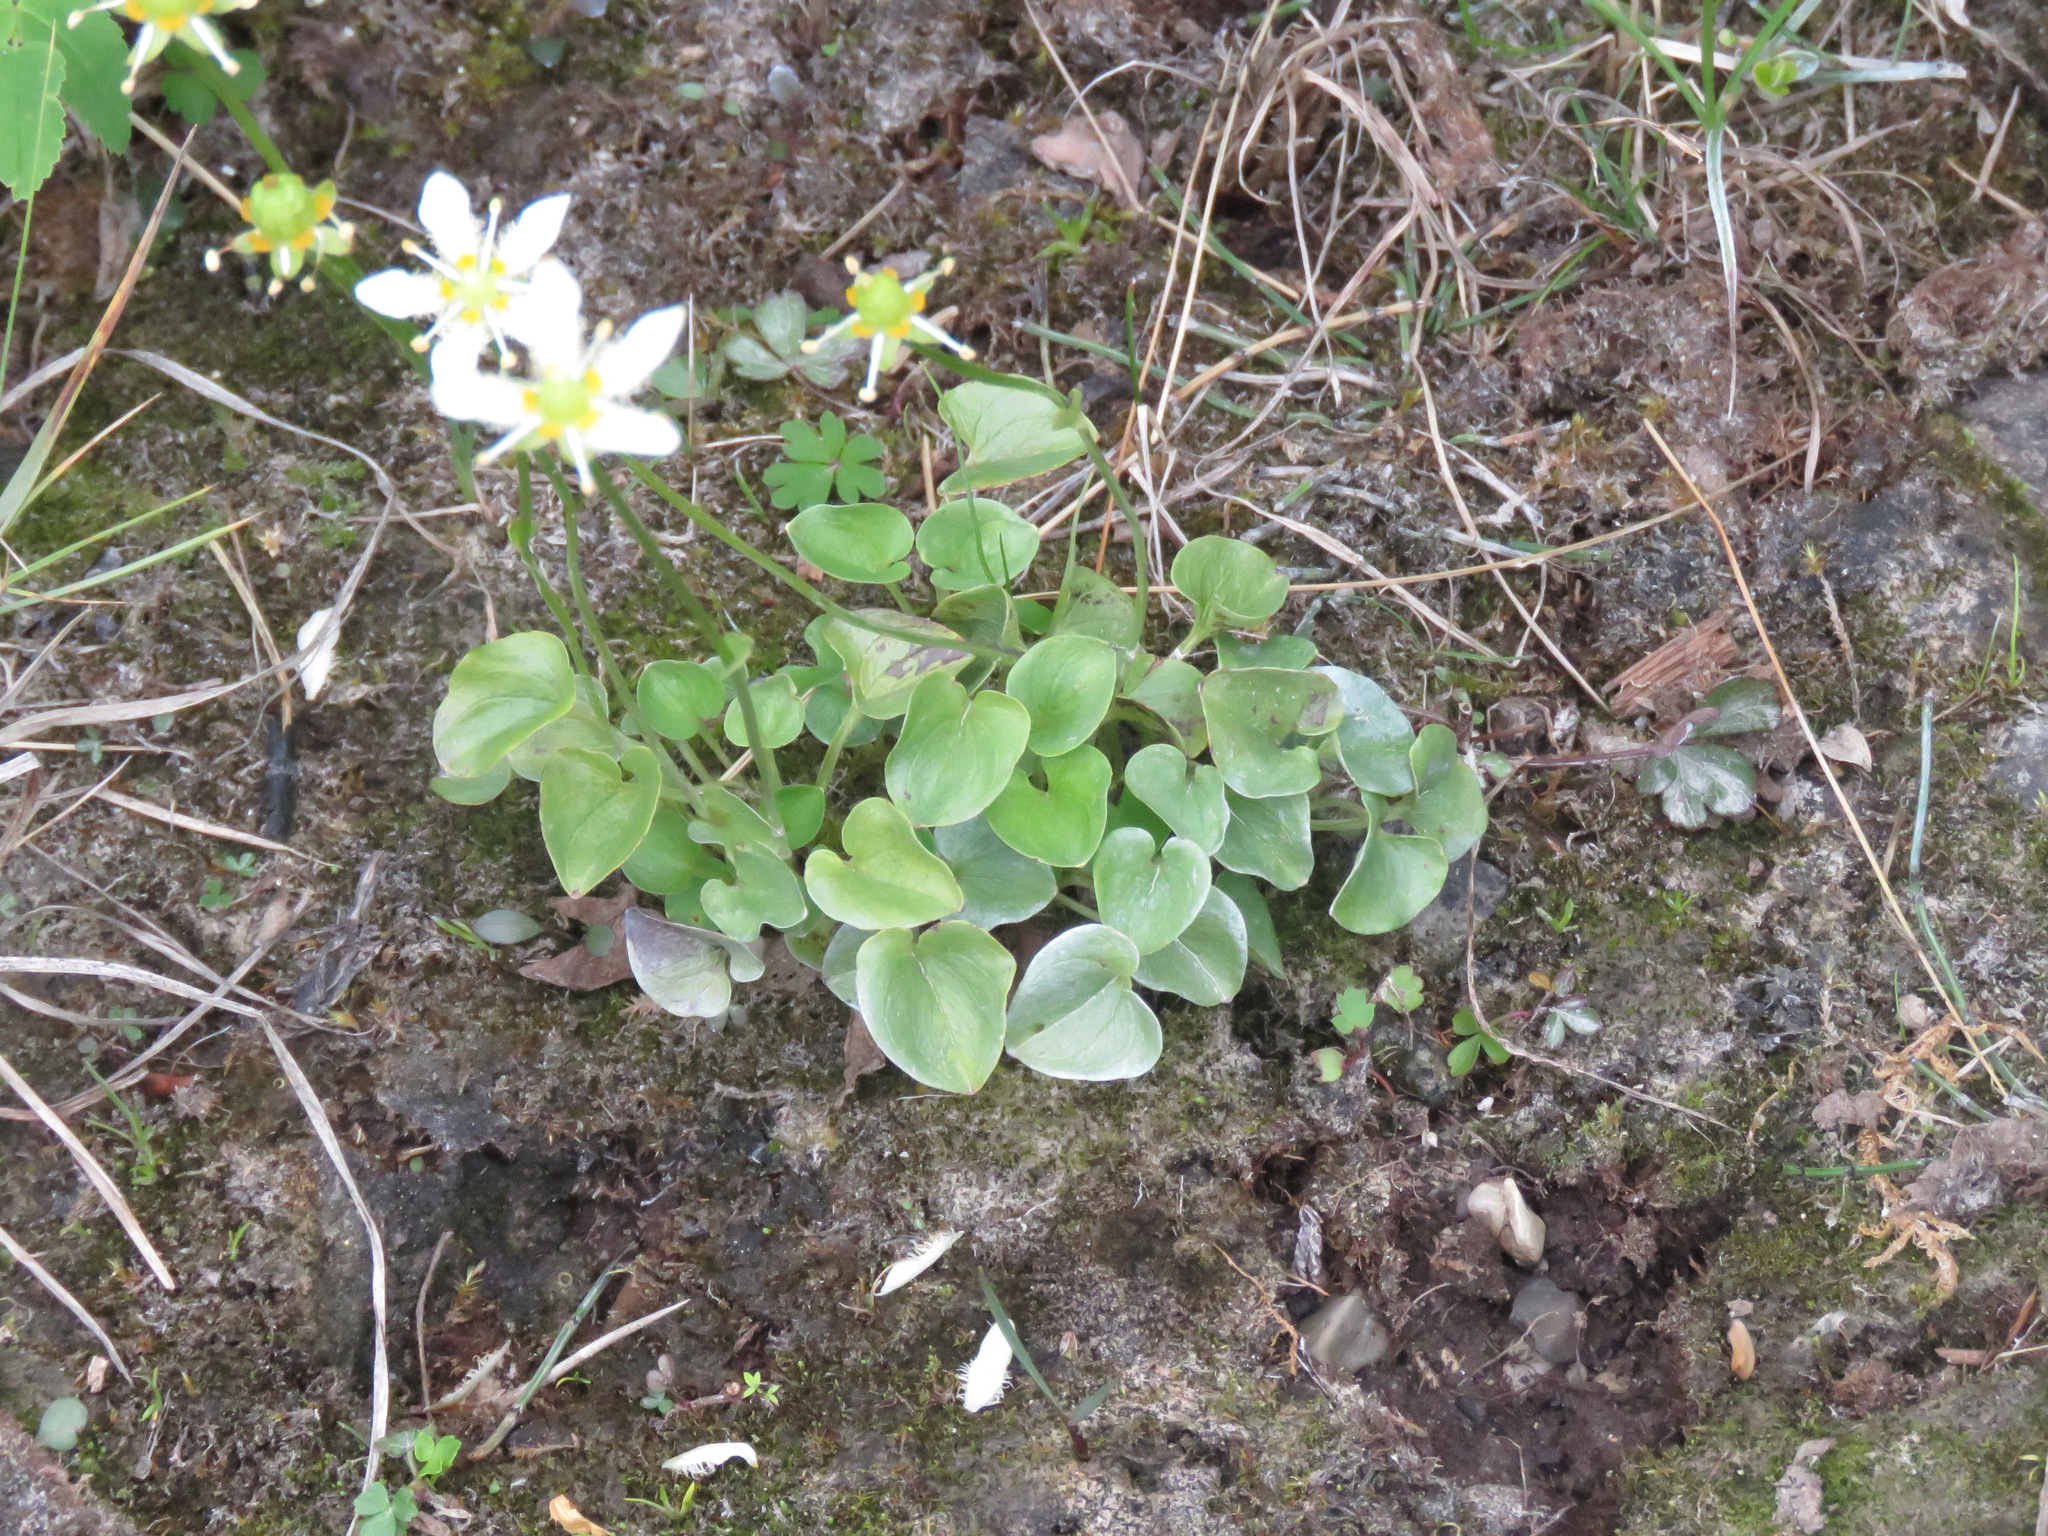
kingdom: Plantae
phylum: Tracheophyta
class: Magnoliopsida
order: Celastrales
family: Parnassiaceae
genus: Parnassia
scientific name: Parnassia fimbriata
